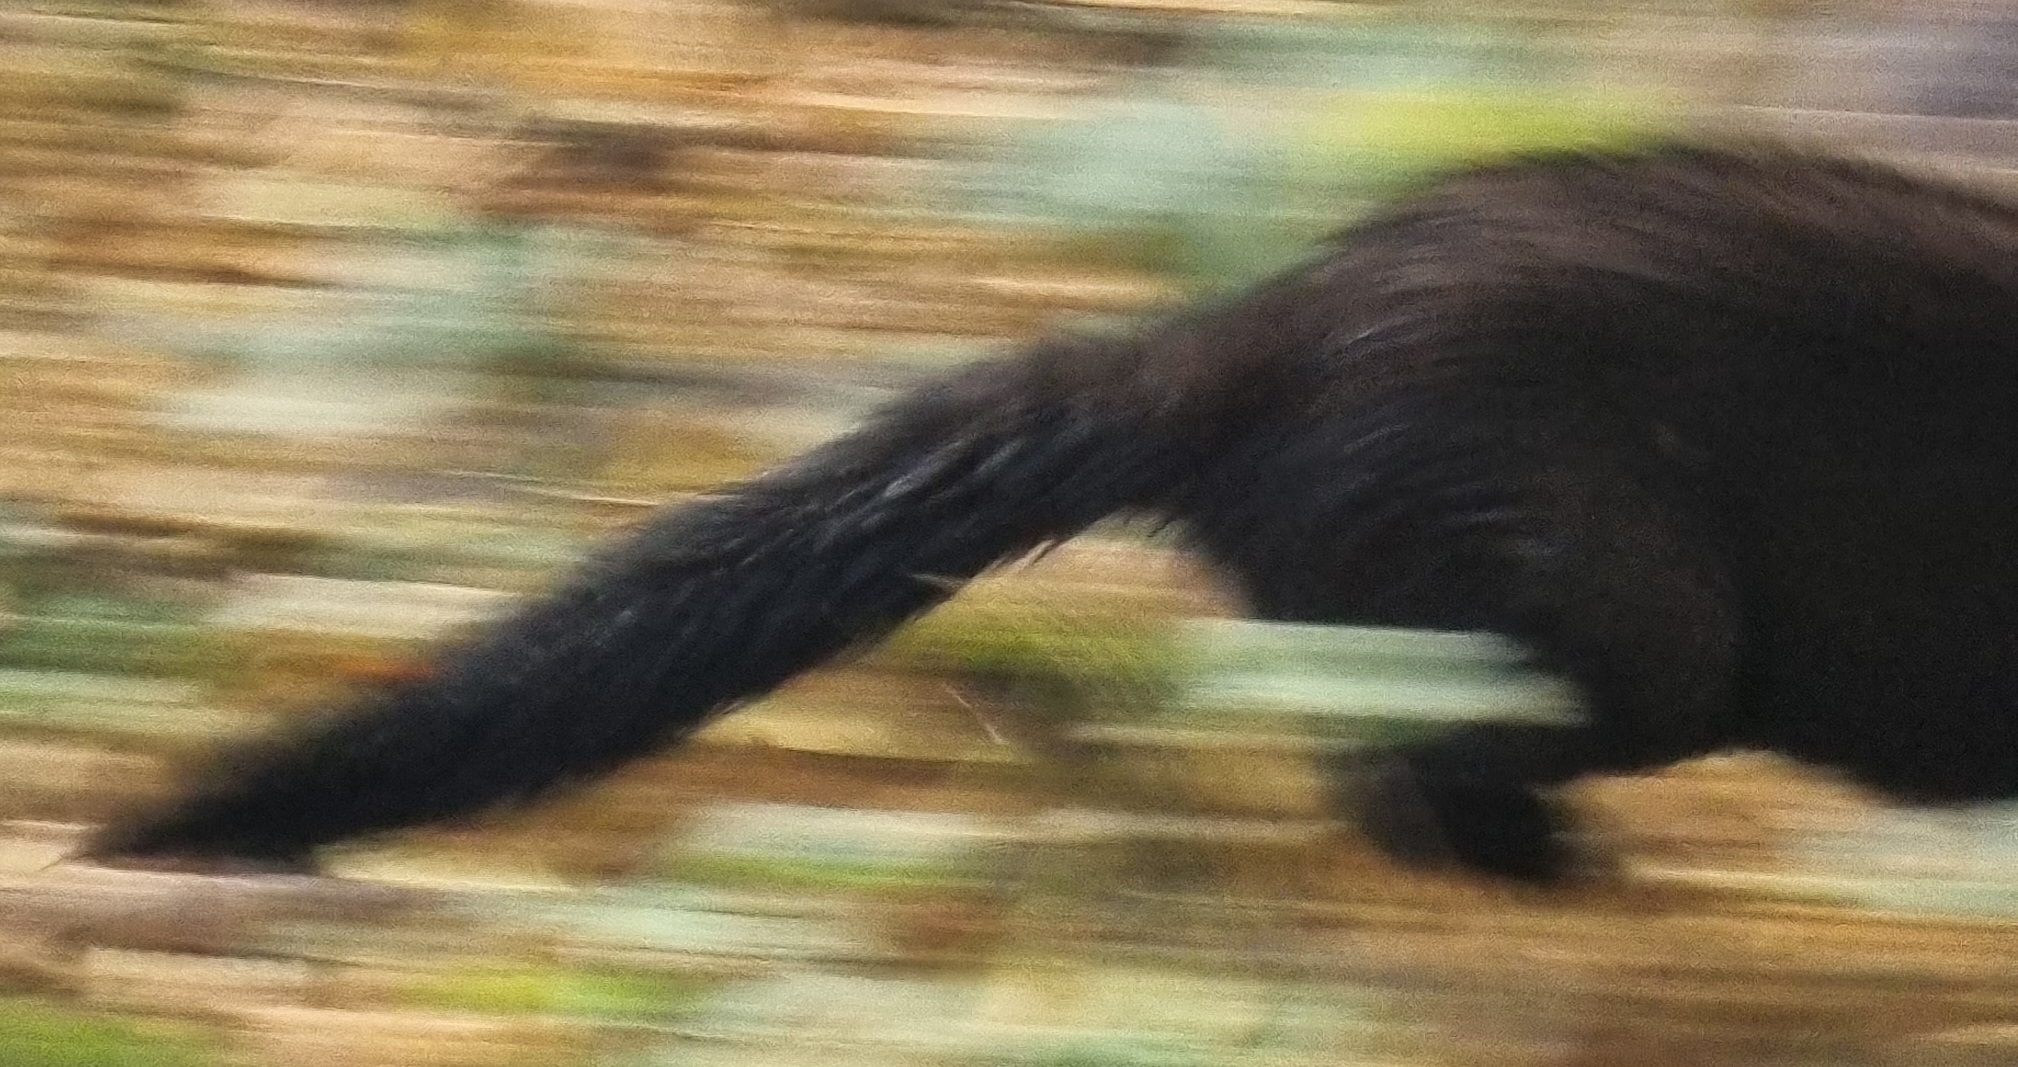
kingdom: Animalia
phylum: Chordata
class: Mammalia
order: Carnivora
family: Mustelidae
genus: Mustela
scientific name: Mustela
